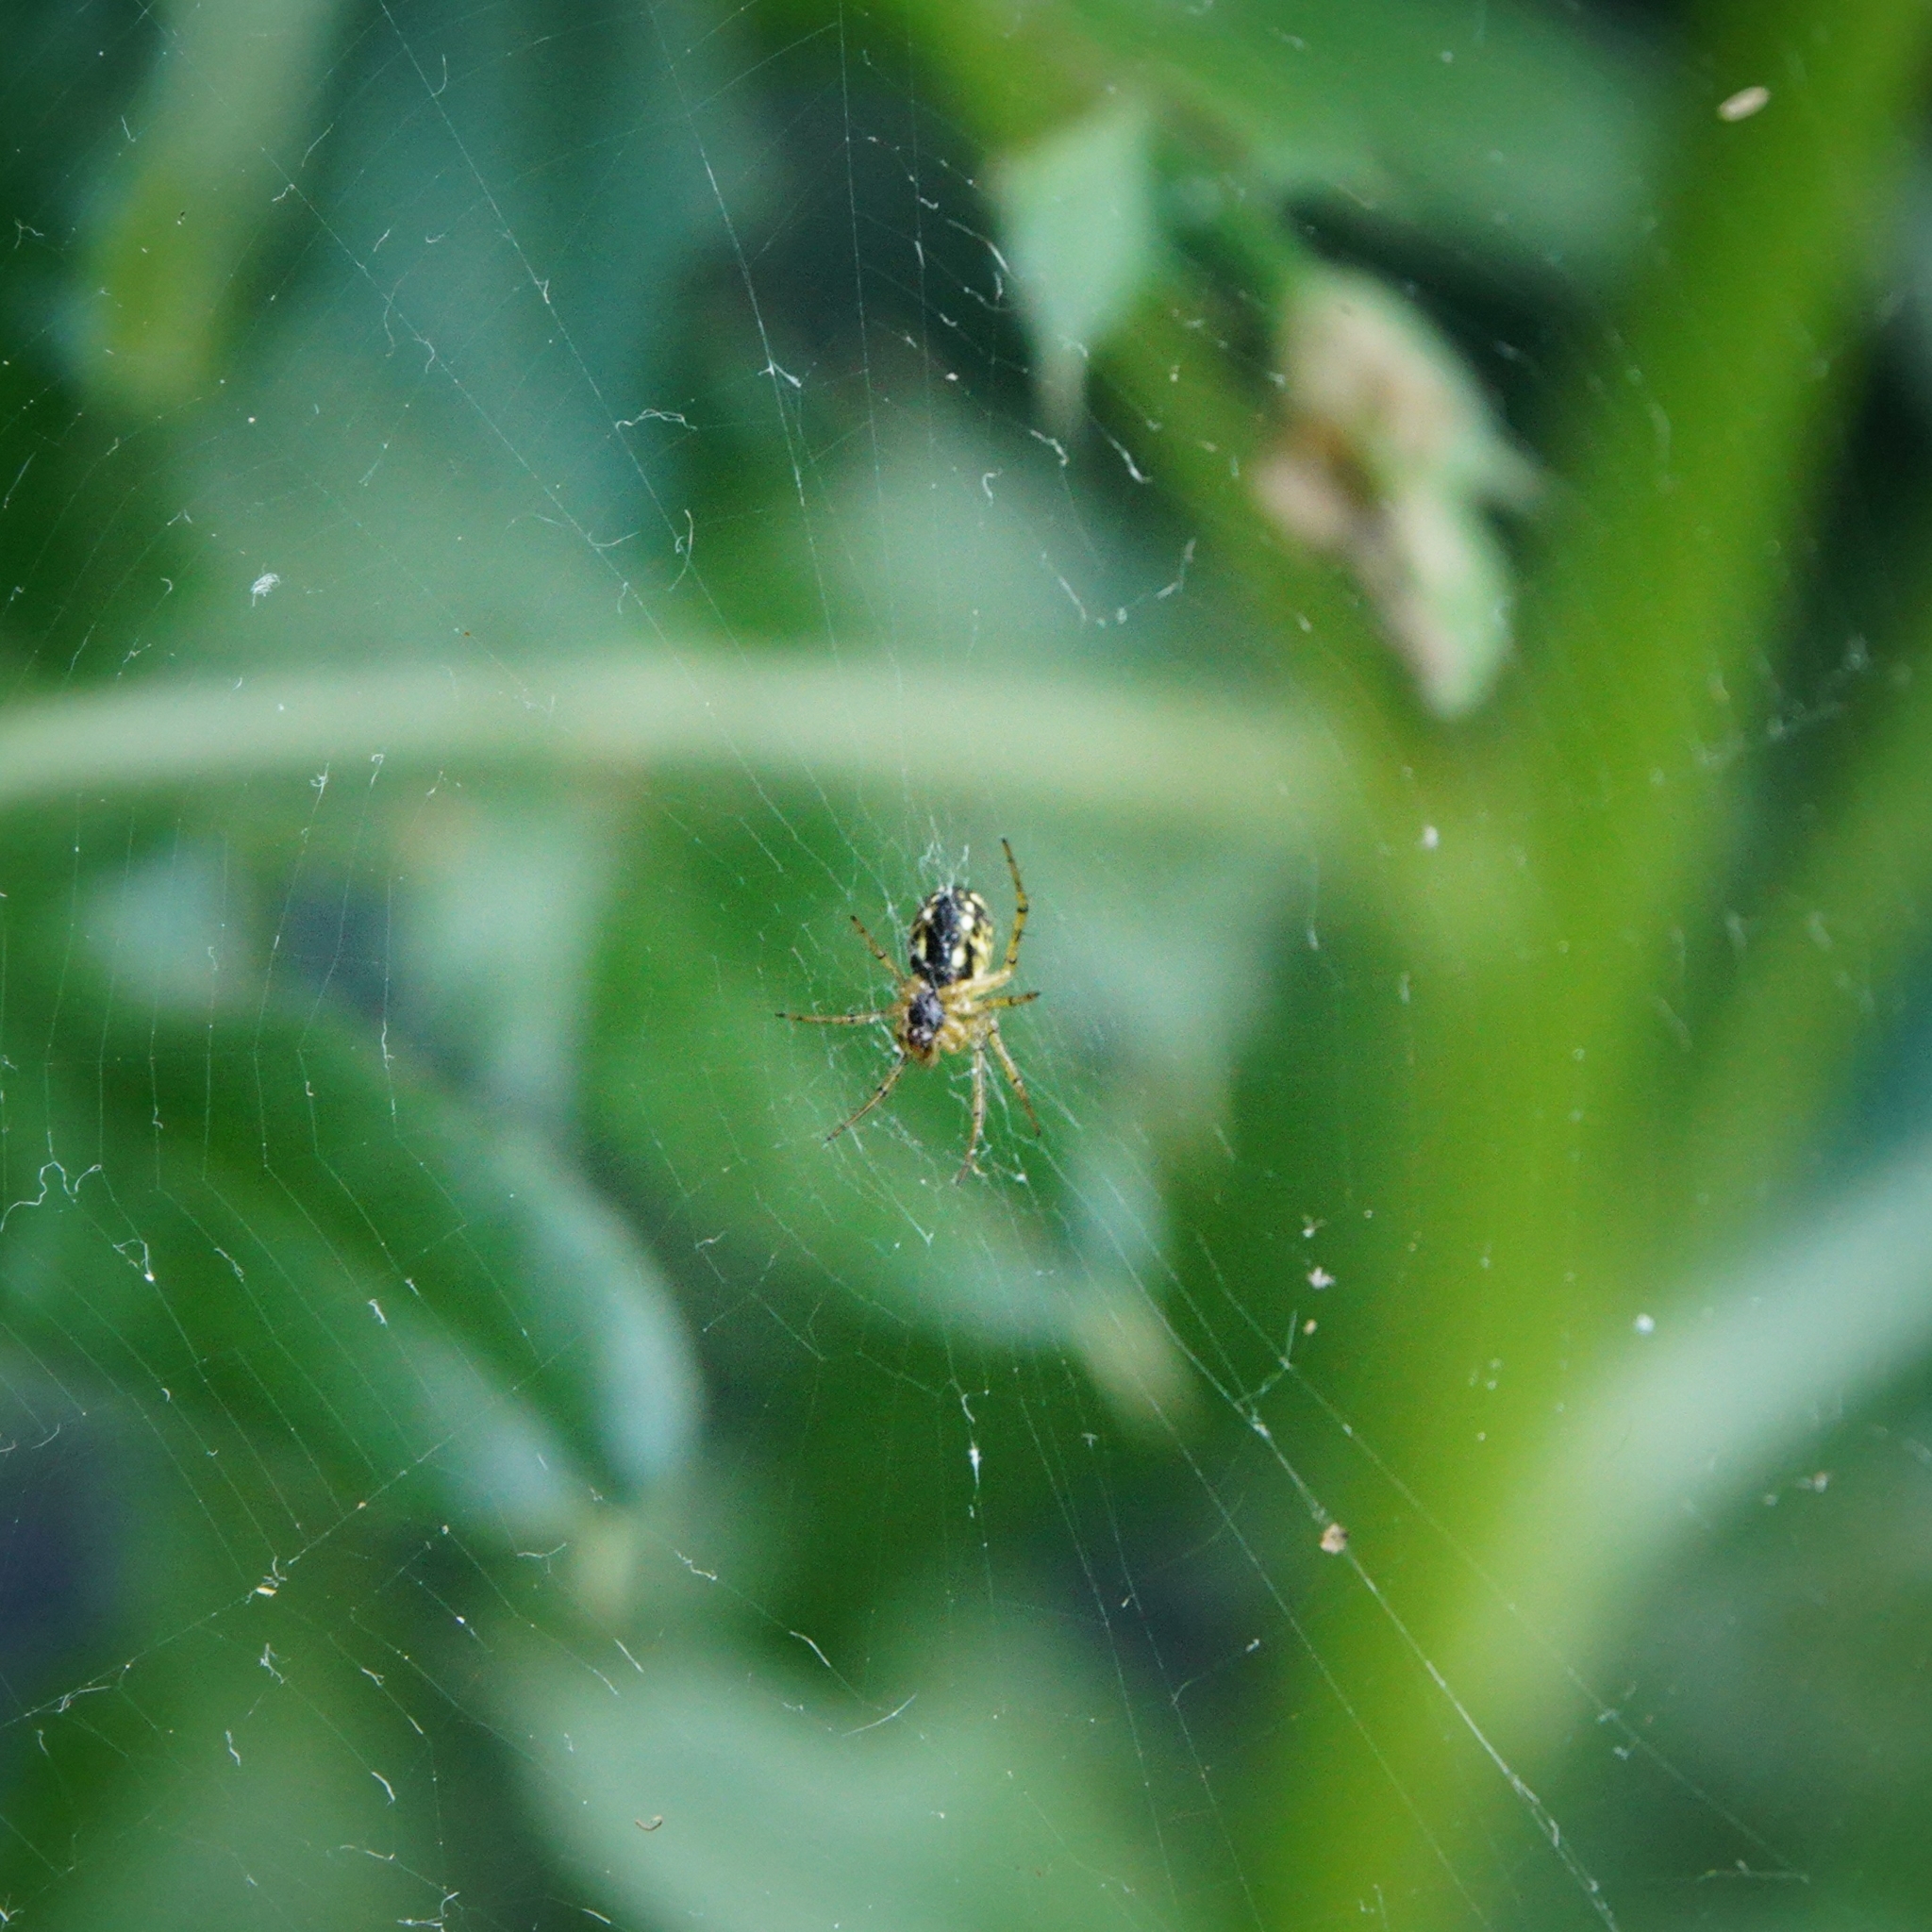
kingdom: Animalia
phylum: Arthropoda
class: Arachnida
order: Araneae
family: Araneidae
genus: Mangora
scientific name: Mangora acalypha
